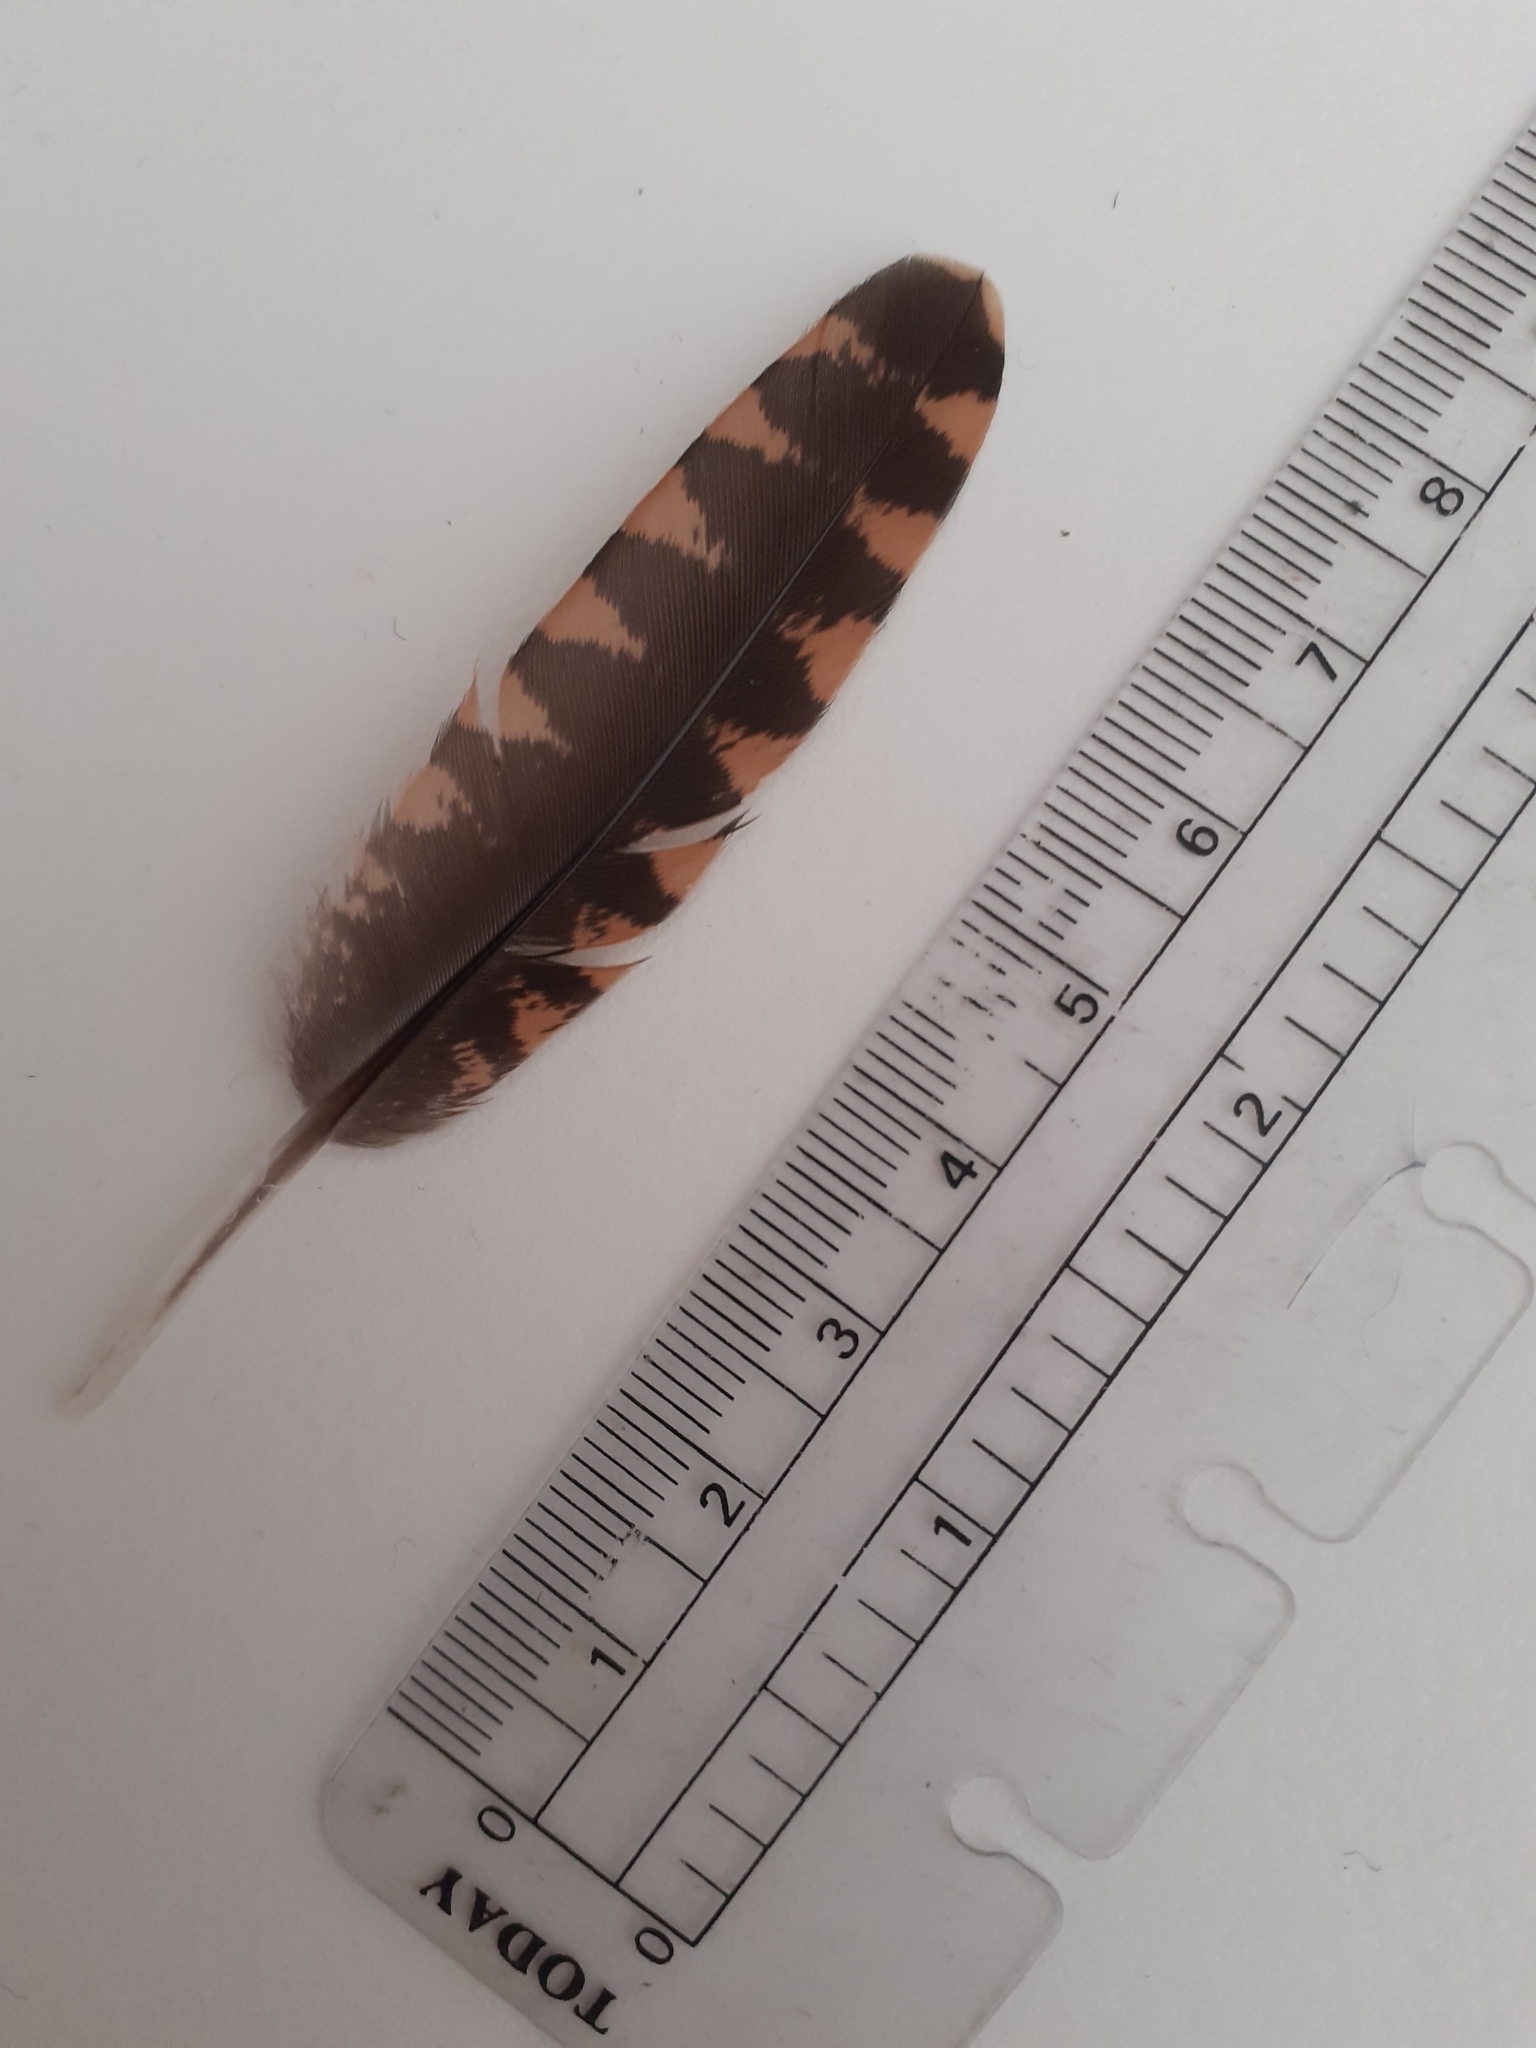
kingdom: Animalia
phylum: Chordata
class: Aves
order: Charadriiformes
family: Scolopacidae
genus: Scolopax
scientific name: Scolopax rusticola
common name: Eurasian woodcock
